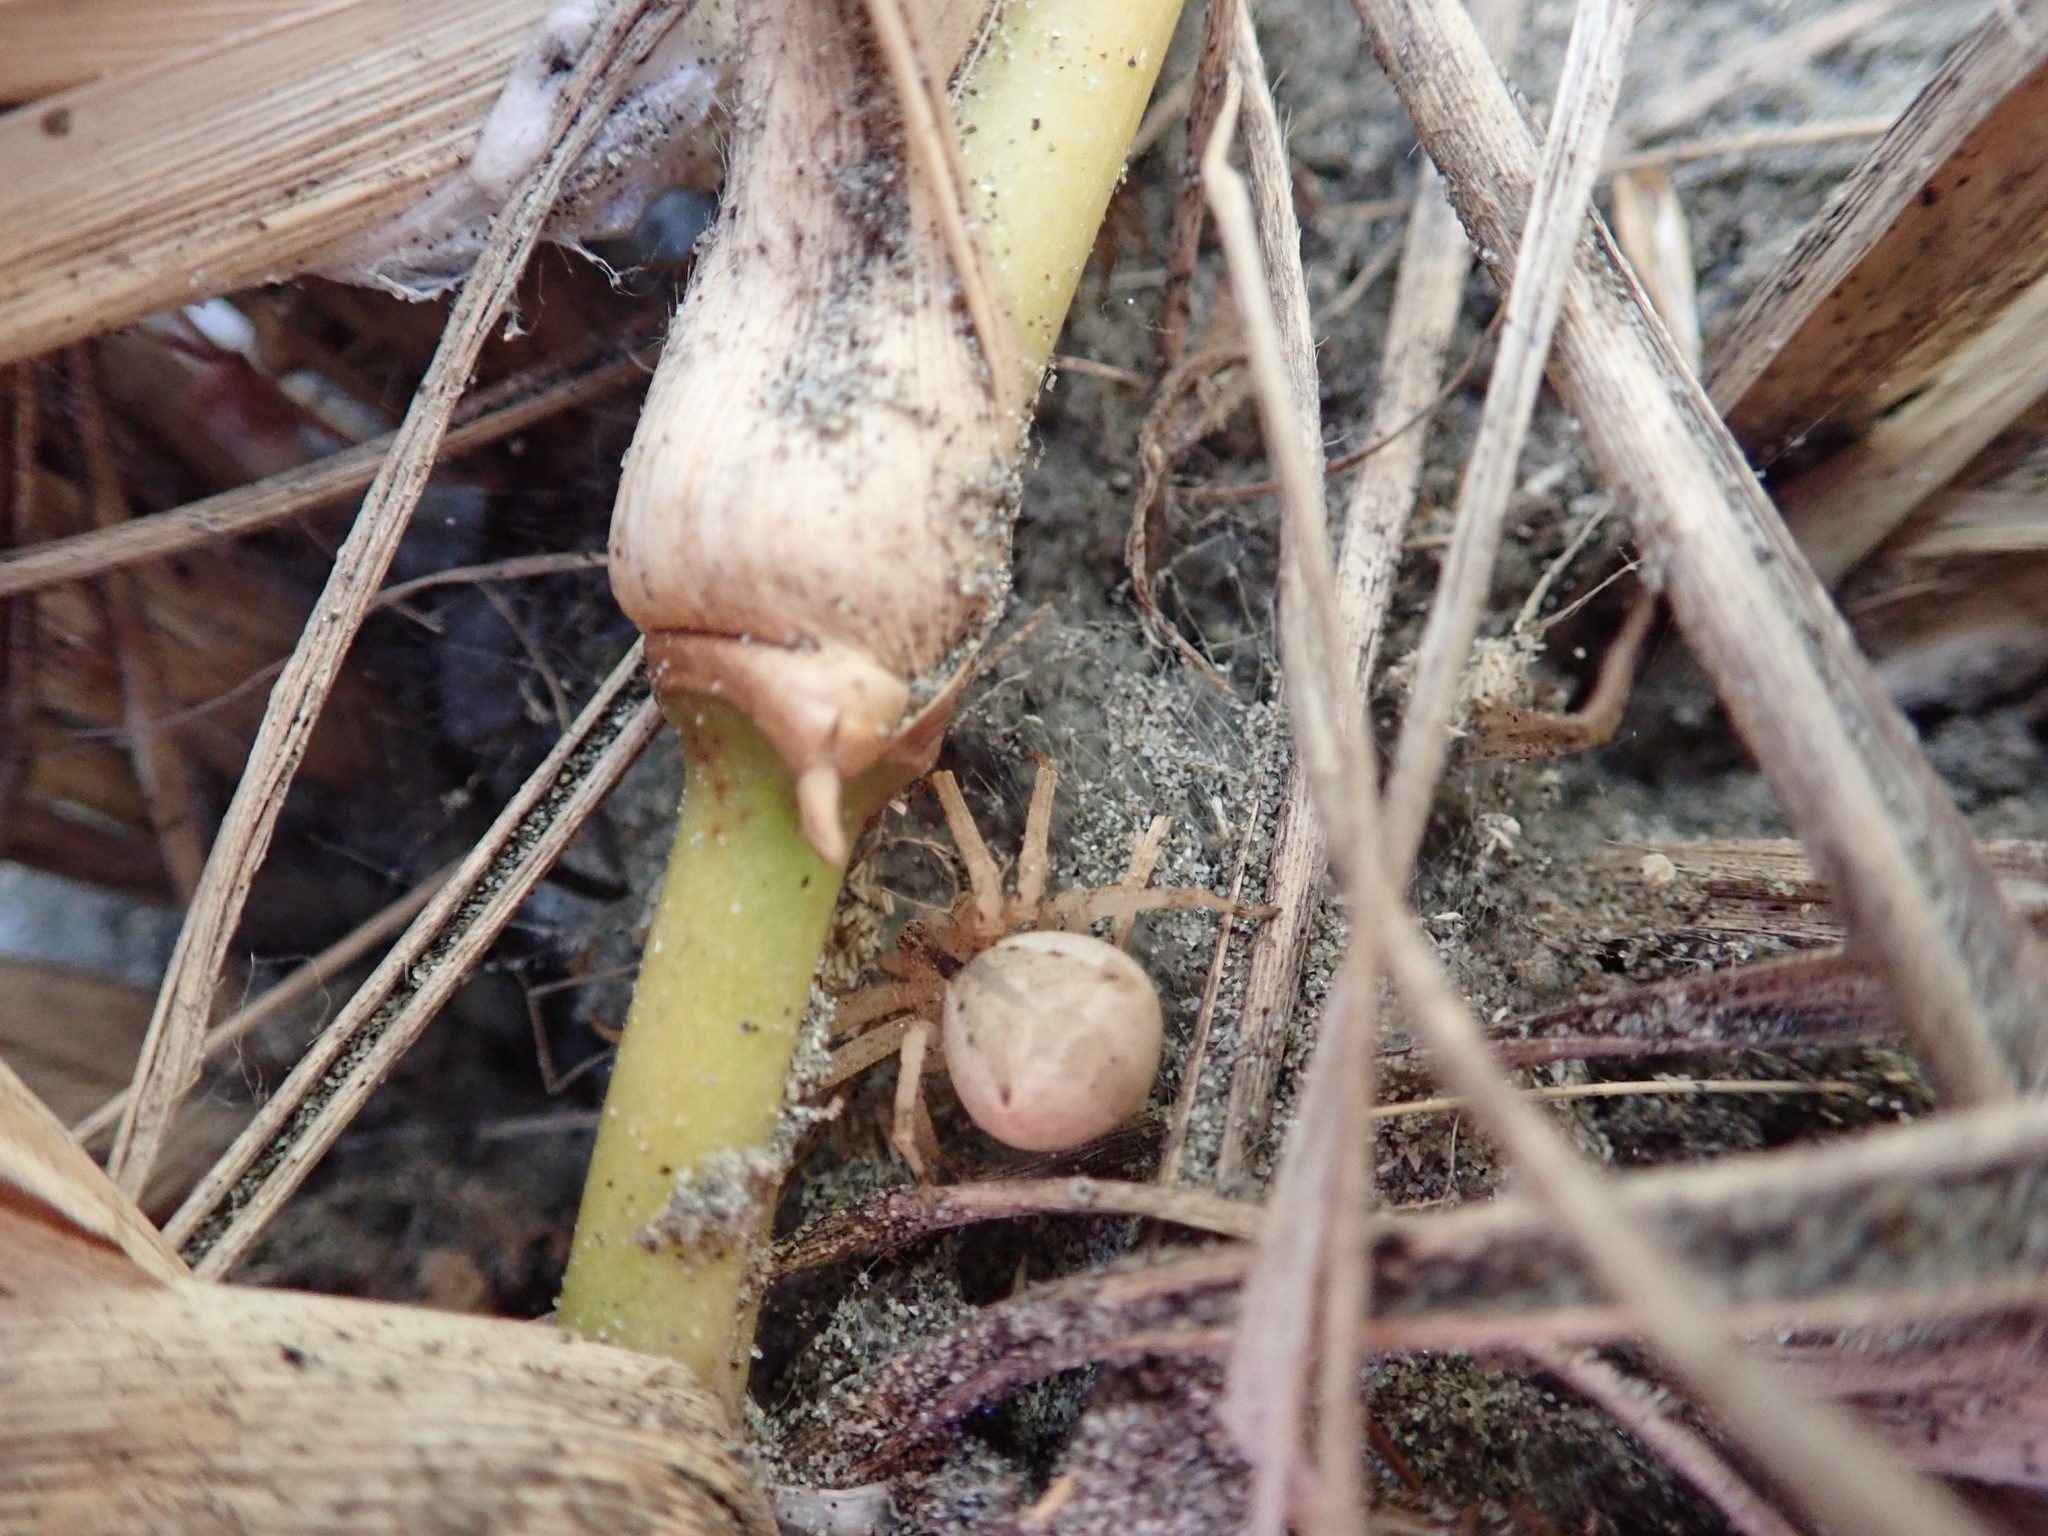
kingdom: Animalia
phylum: Arthropoda
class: Arachnida
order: Araneae
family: Thomisidae
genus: Sidymella
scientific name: Sidymella trapezia
